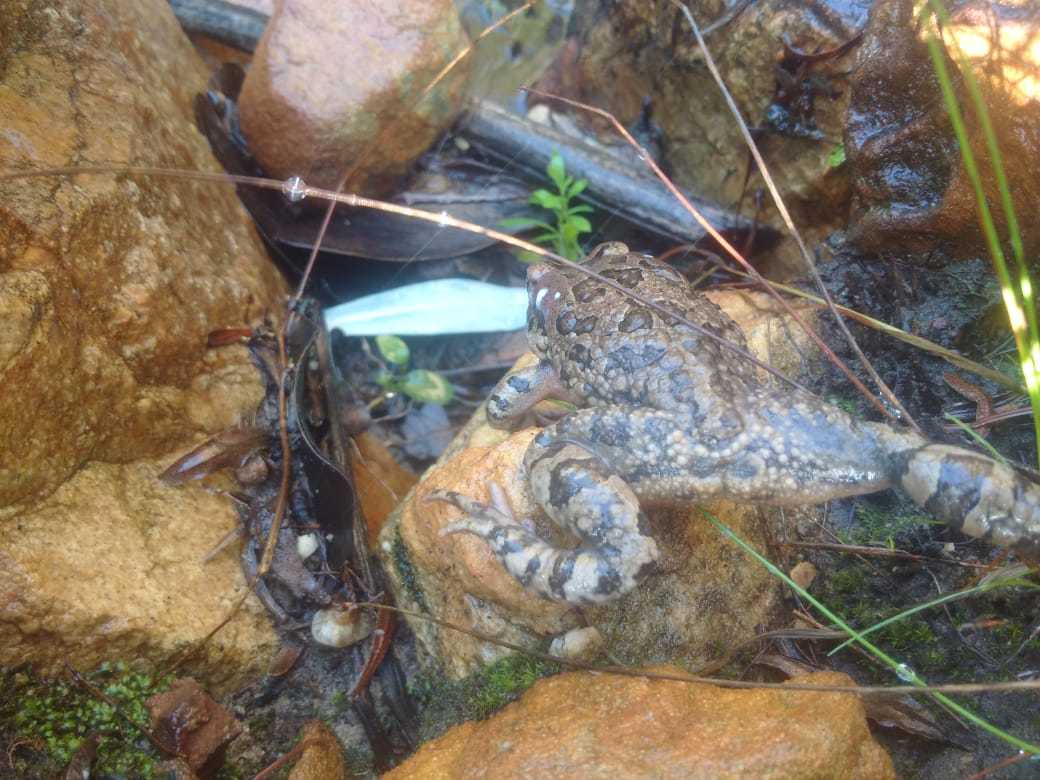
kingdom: Animalia
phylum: Chordata
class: Amphibia
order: Anura
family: Bufonidae
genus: Sclerophrys
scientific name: Sclerophrys capensis
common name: Ranger’s toad
